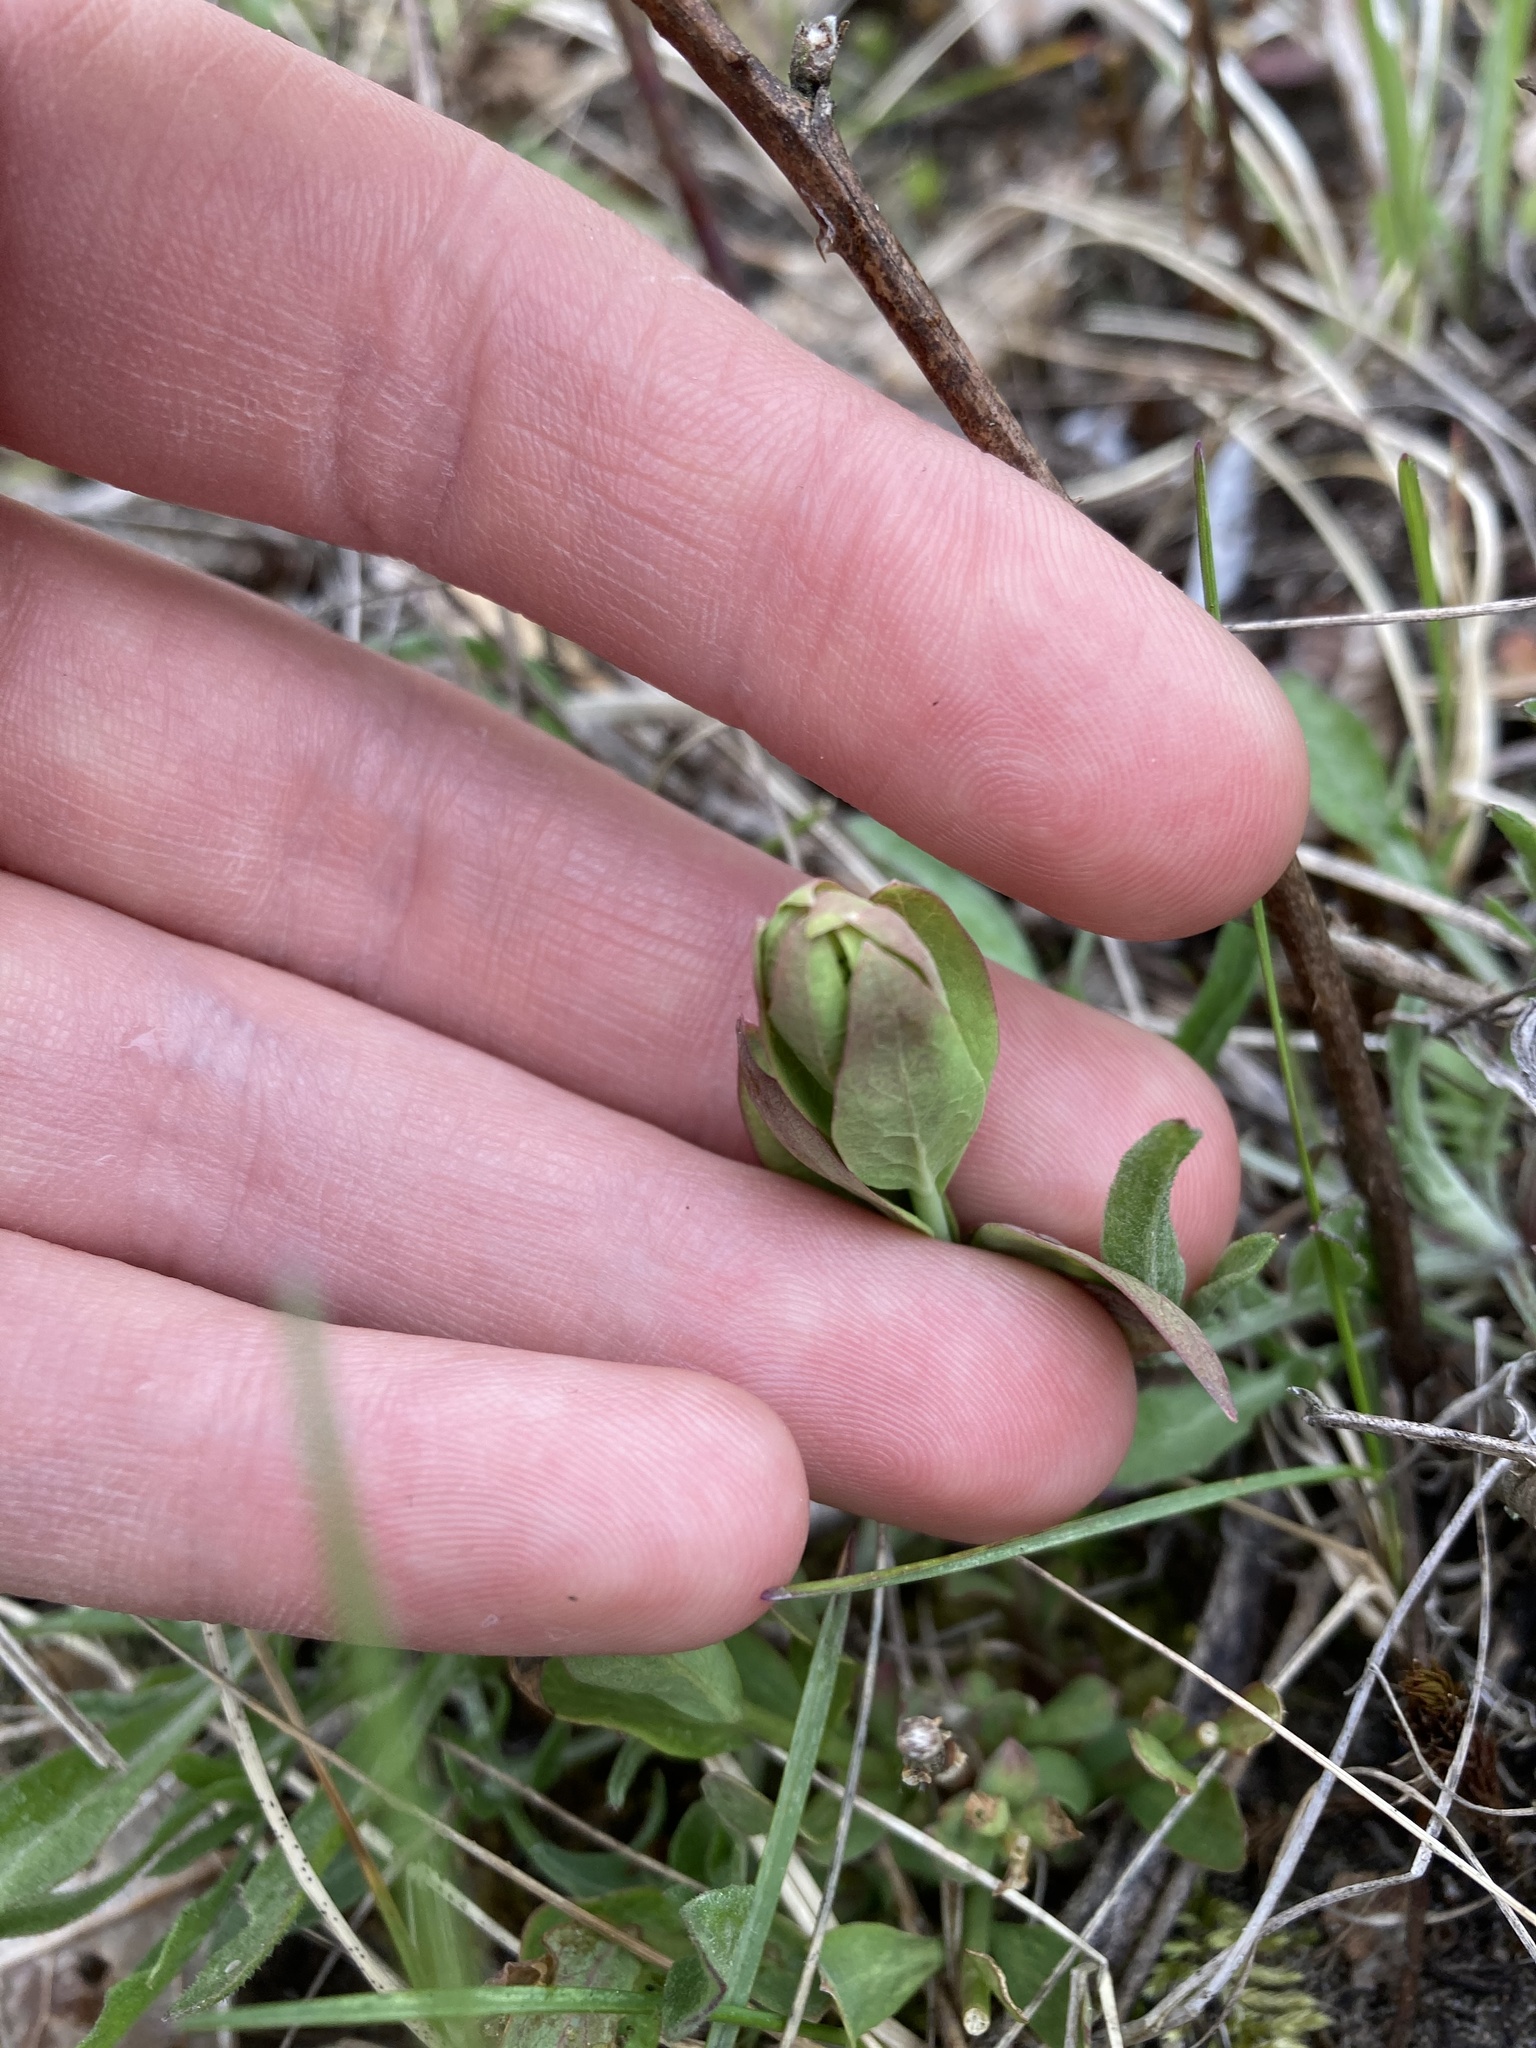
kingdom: Plantae
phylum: Tracheophyta
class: Magnoliopsida
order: Santalales
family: Comandraceae
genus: Comandra
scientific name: Comandra umbellata
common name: Bastard toadflax
